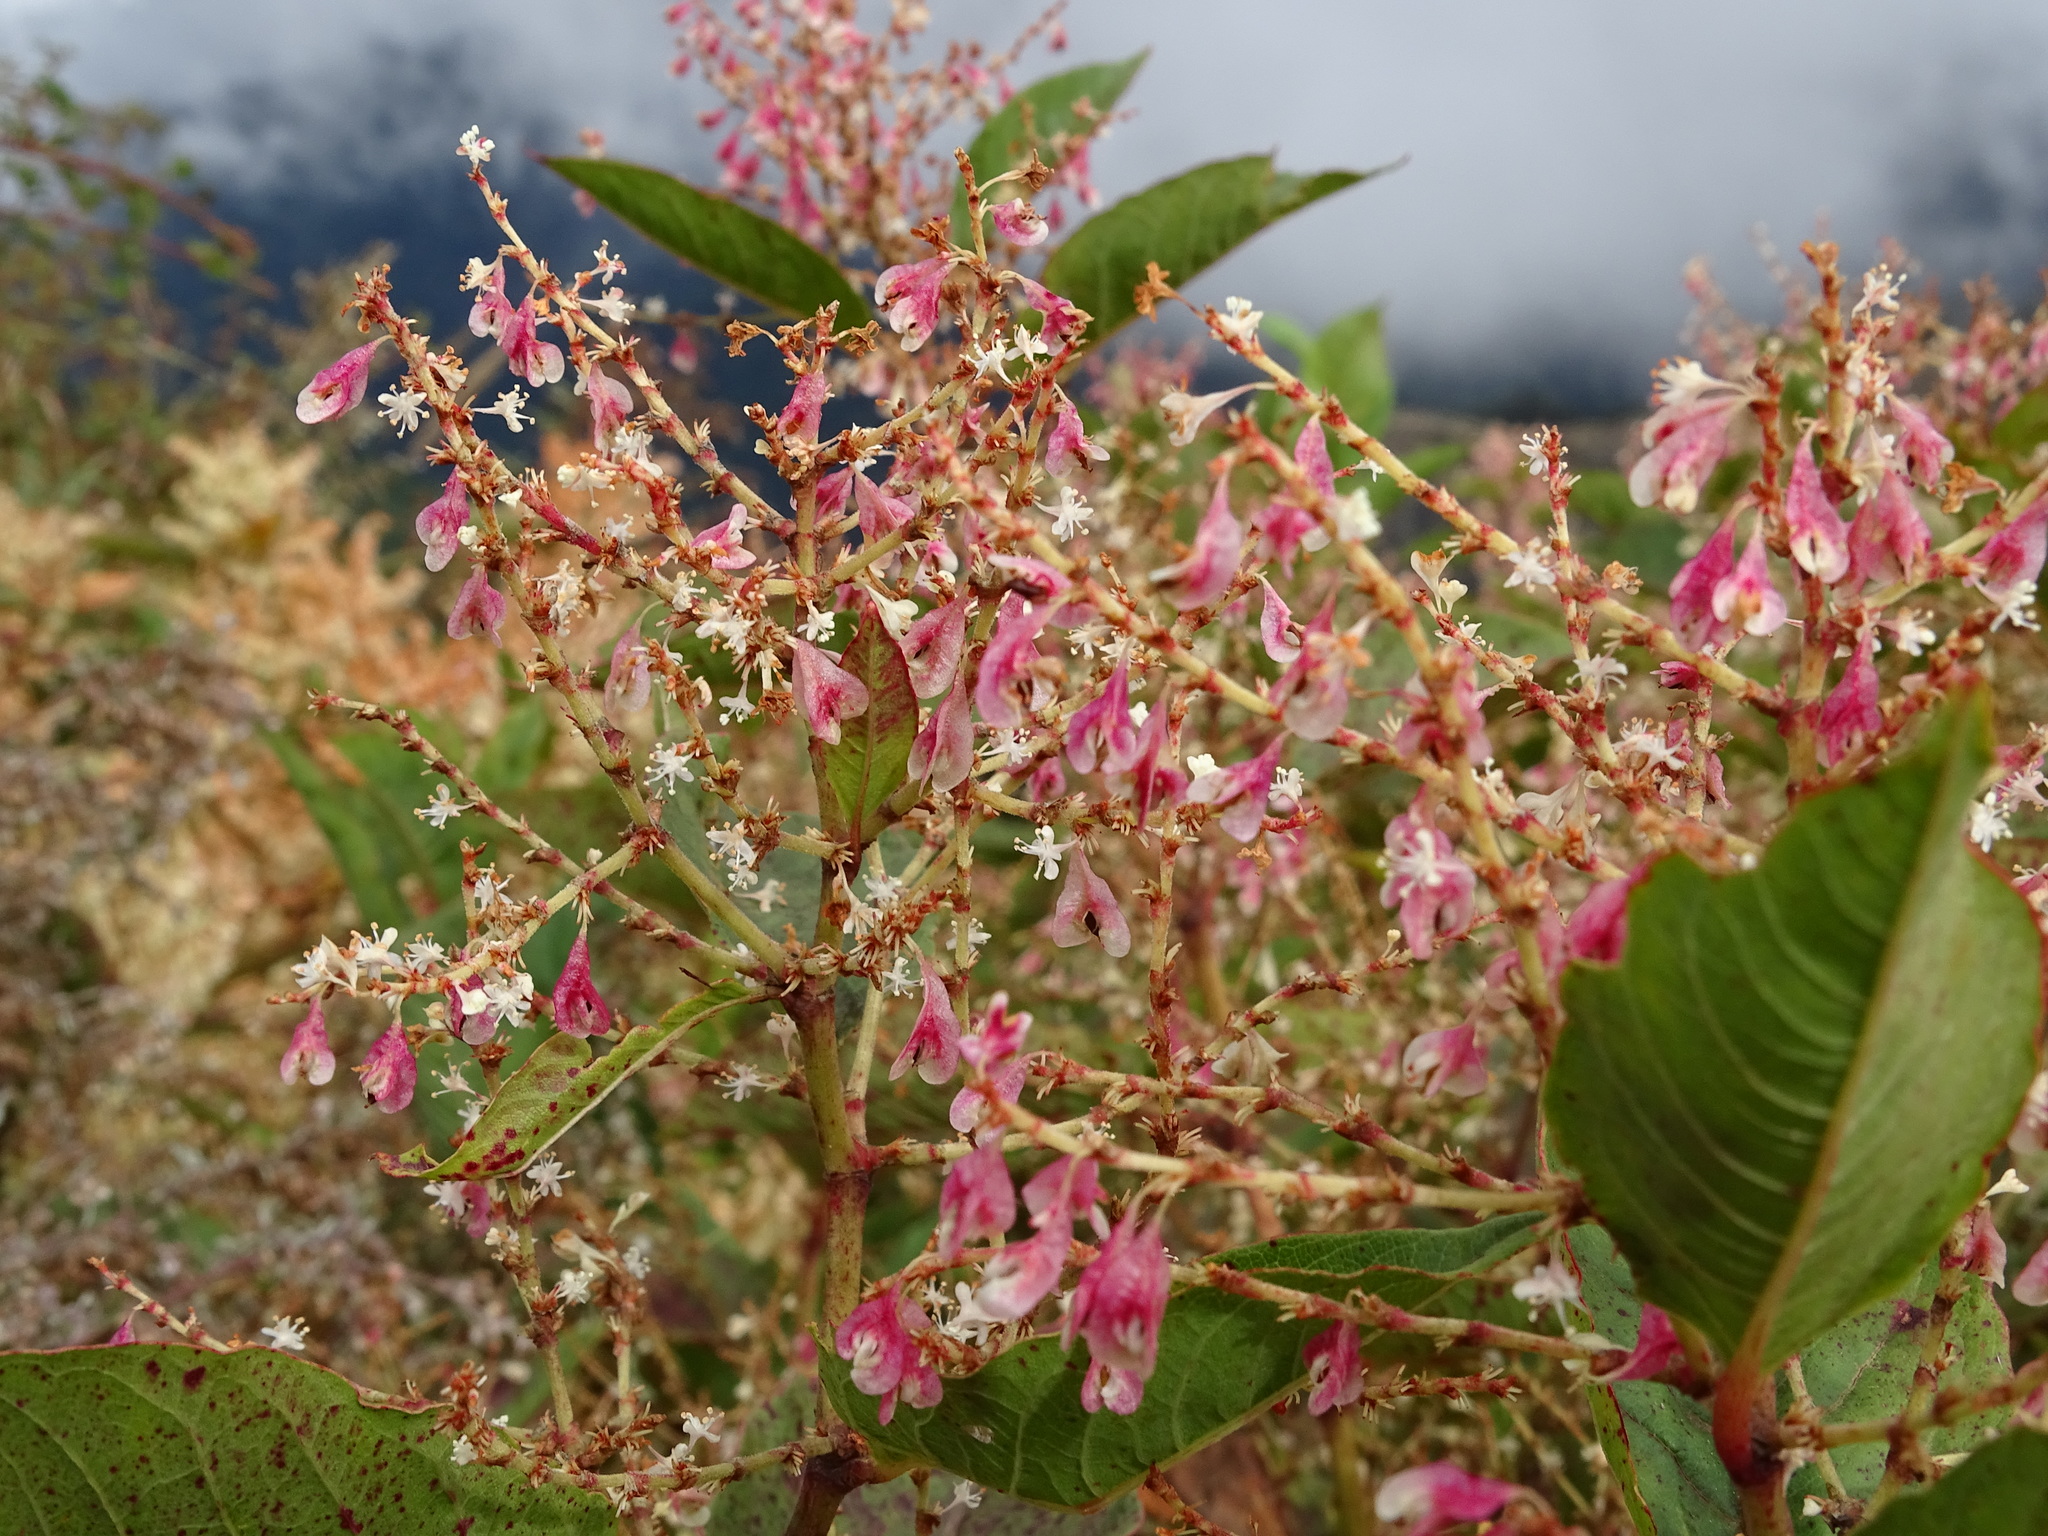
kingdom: Plantae
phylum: Tracheophyta
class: Magnoliopsida
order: Caryophyllales
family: Polygonaceae
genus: Reynoutria
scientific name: Reynoutria japonica
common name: Japanese knotweed
